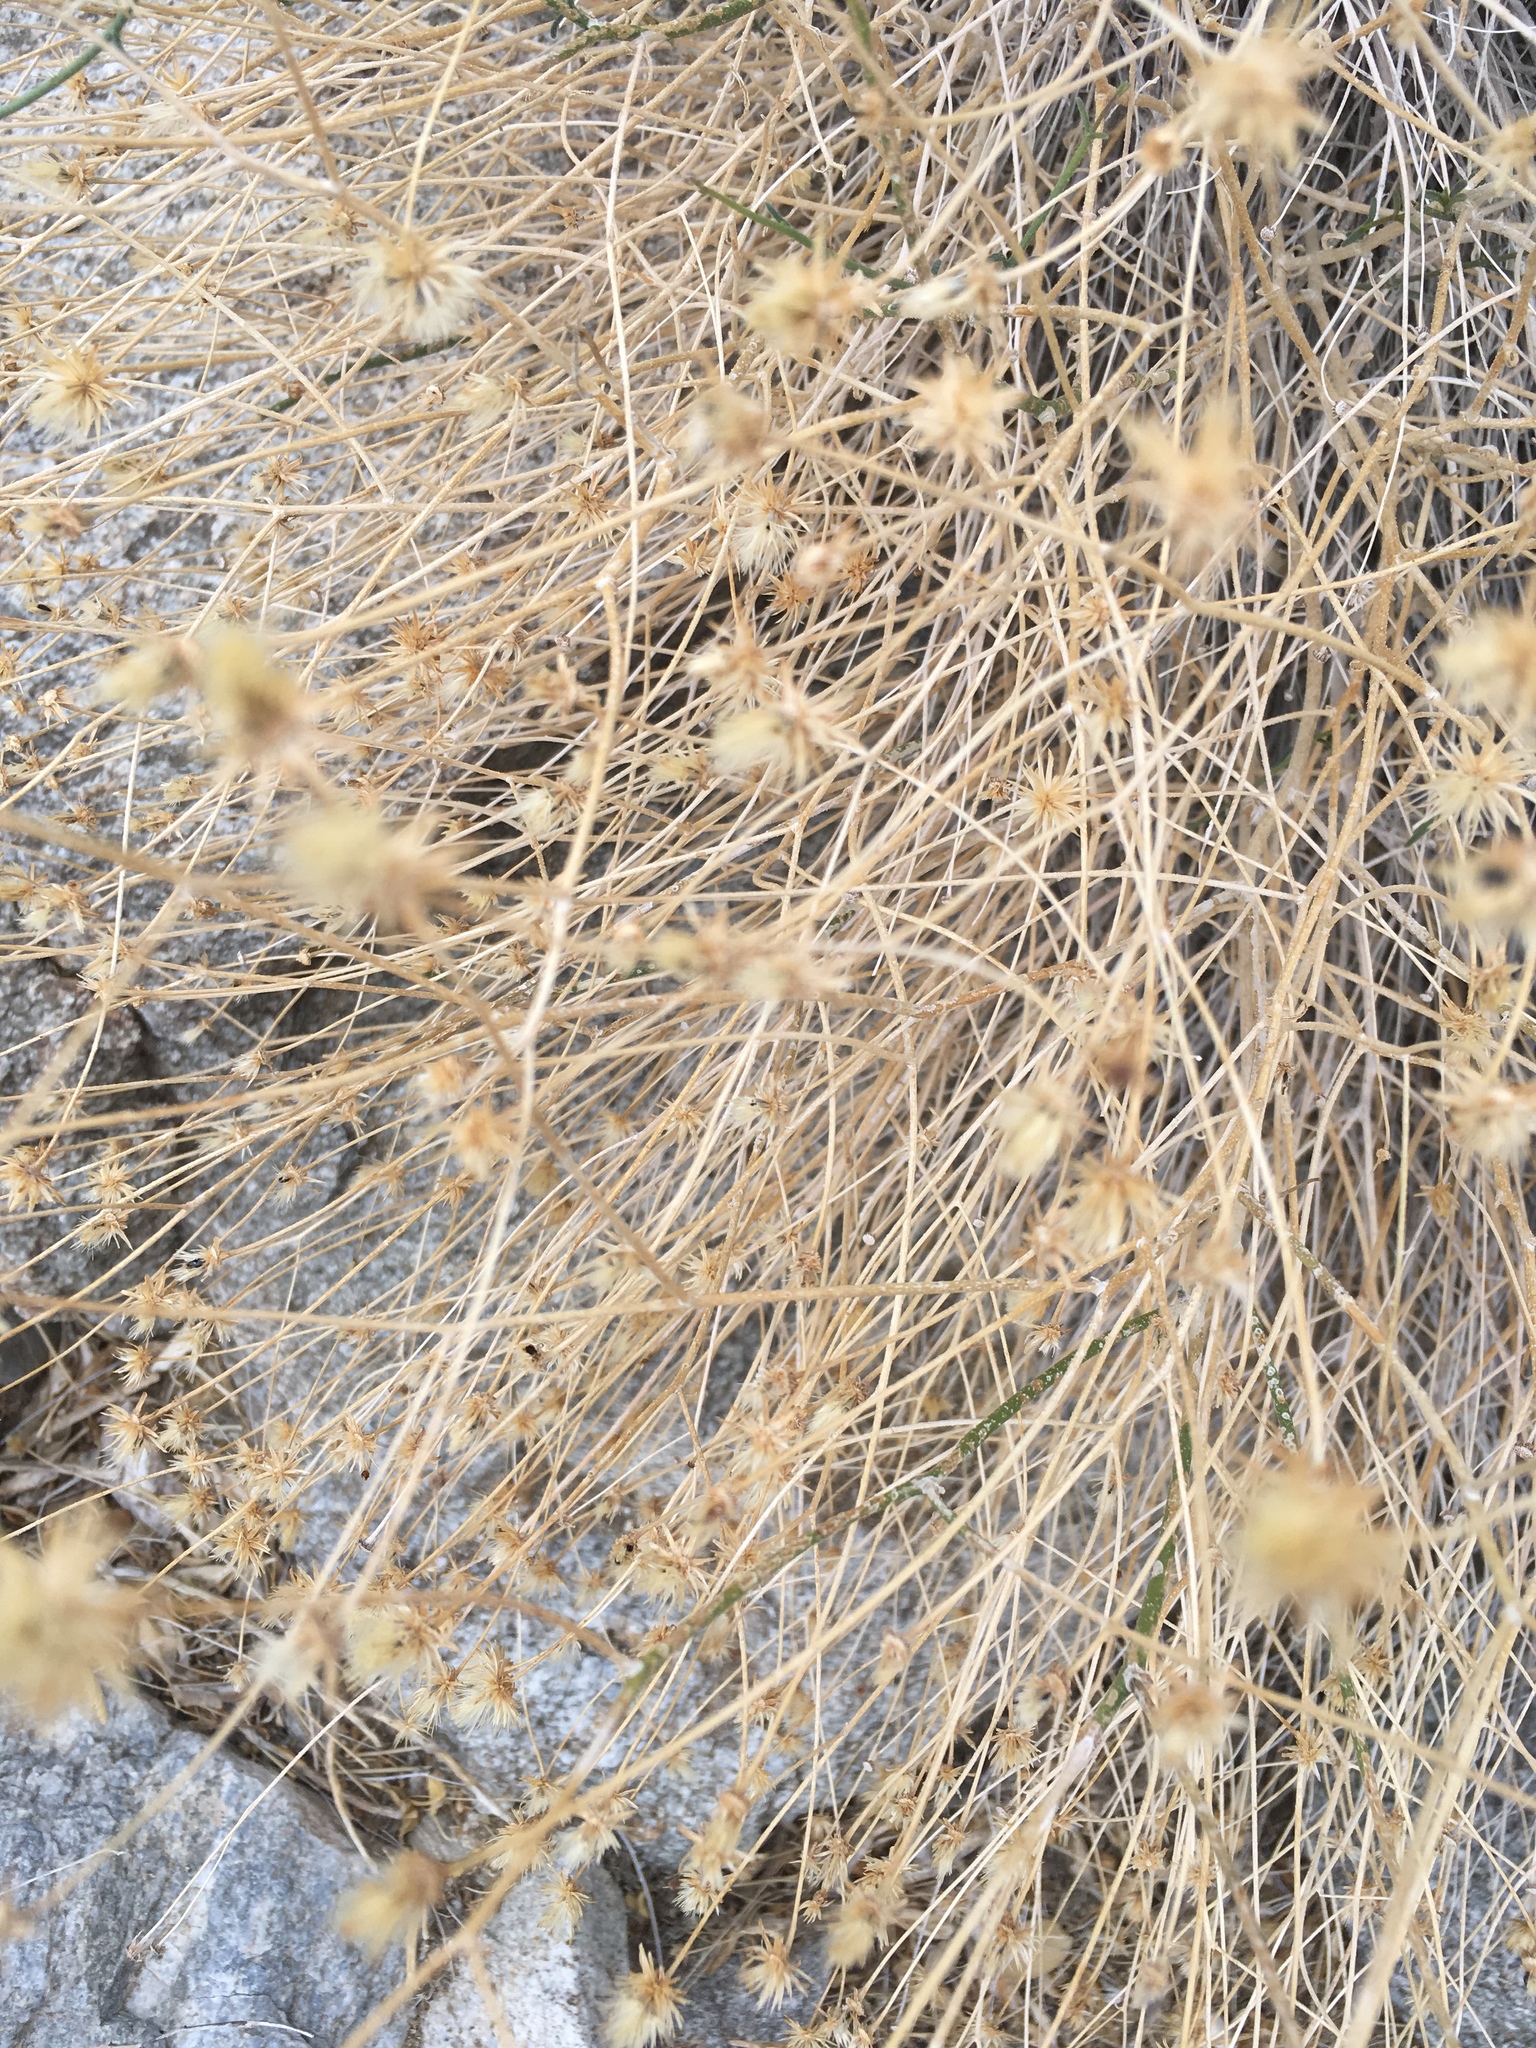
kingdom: Plantae
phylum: Tracheophyta
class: Magnoliopsida
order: Asterales
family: Asteraceae
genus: Bebbia
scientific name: Bebbia juncea
